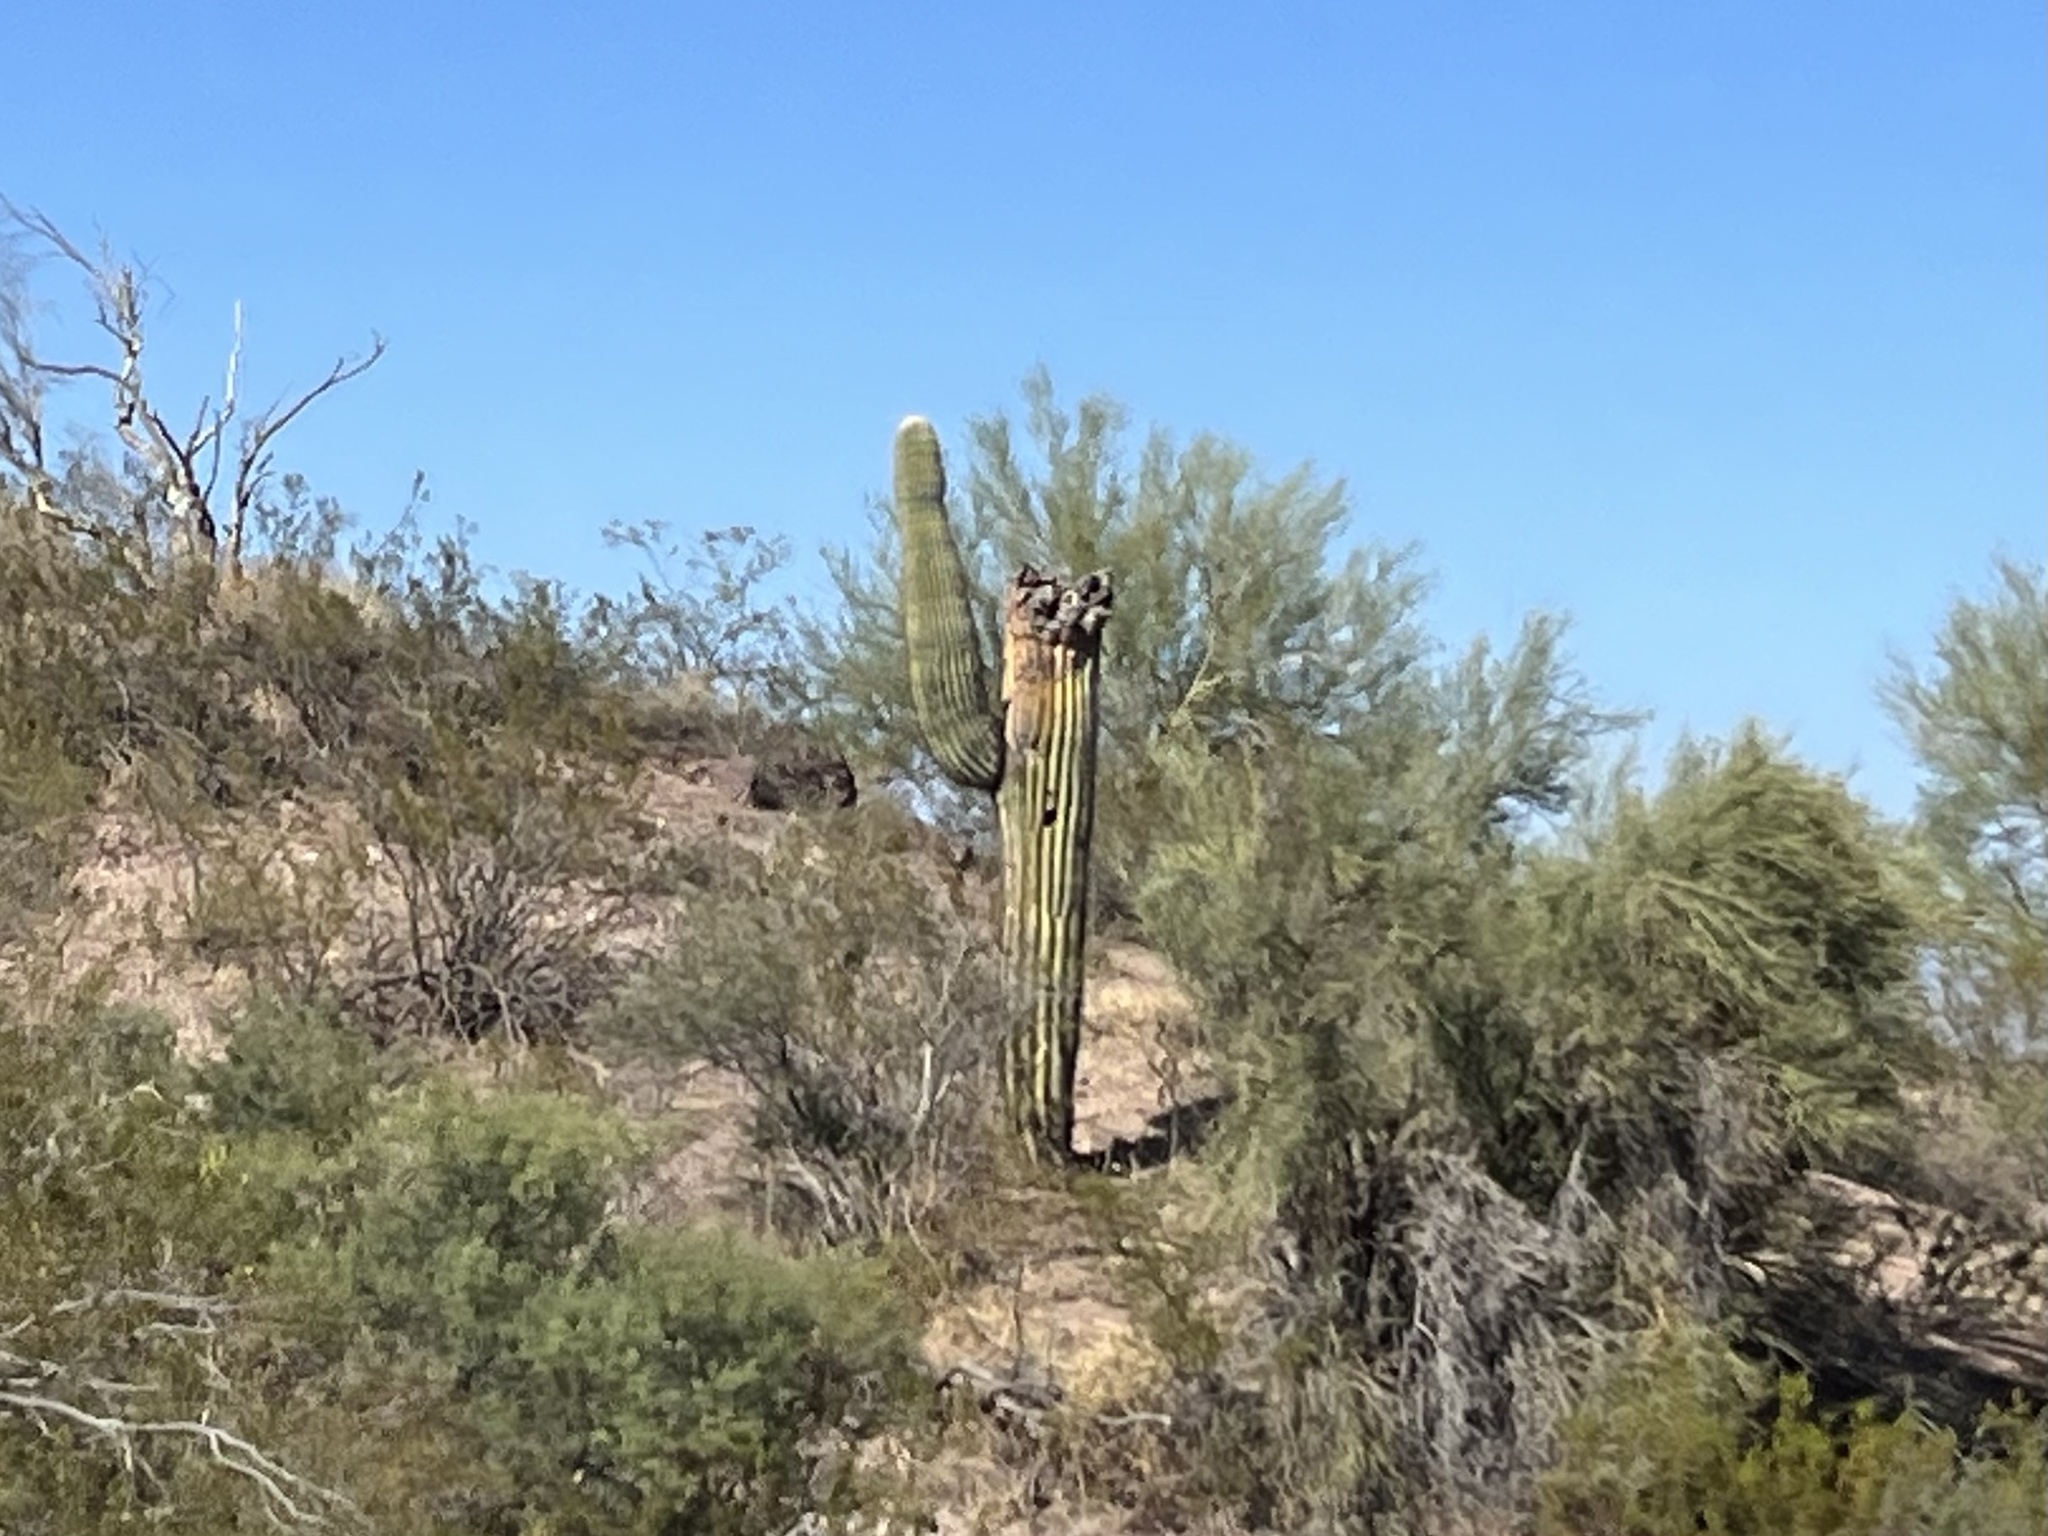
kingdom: Plantae
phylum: Tracheophyta
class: Magnoliopsida
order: Caryophyllales
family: Cactaceae
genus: Carnegiea
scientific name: Carnegiea gigantea
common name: Saguaro
